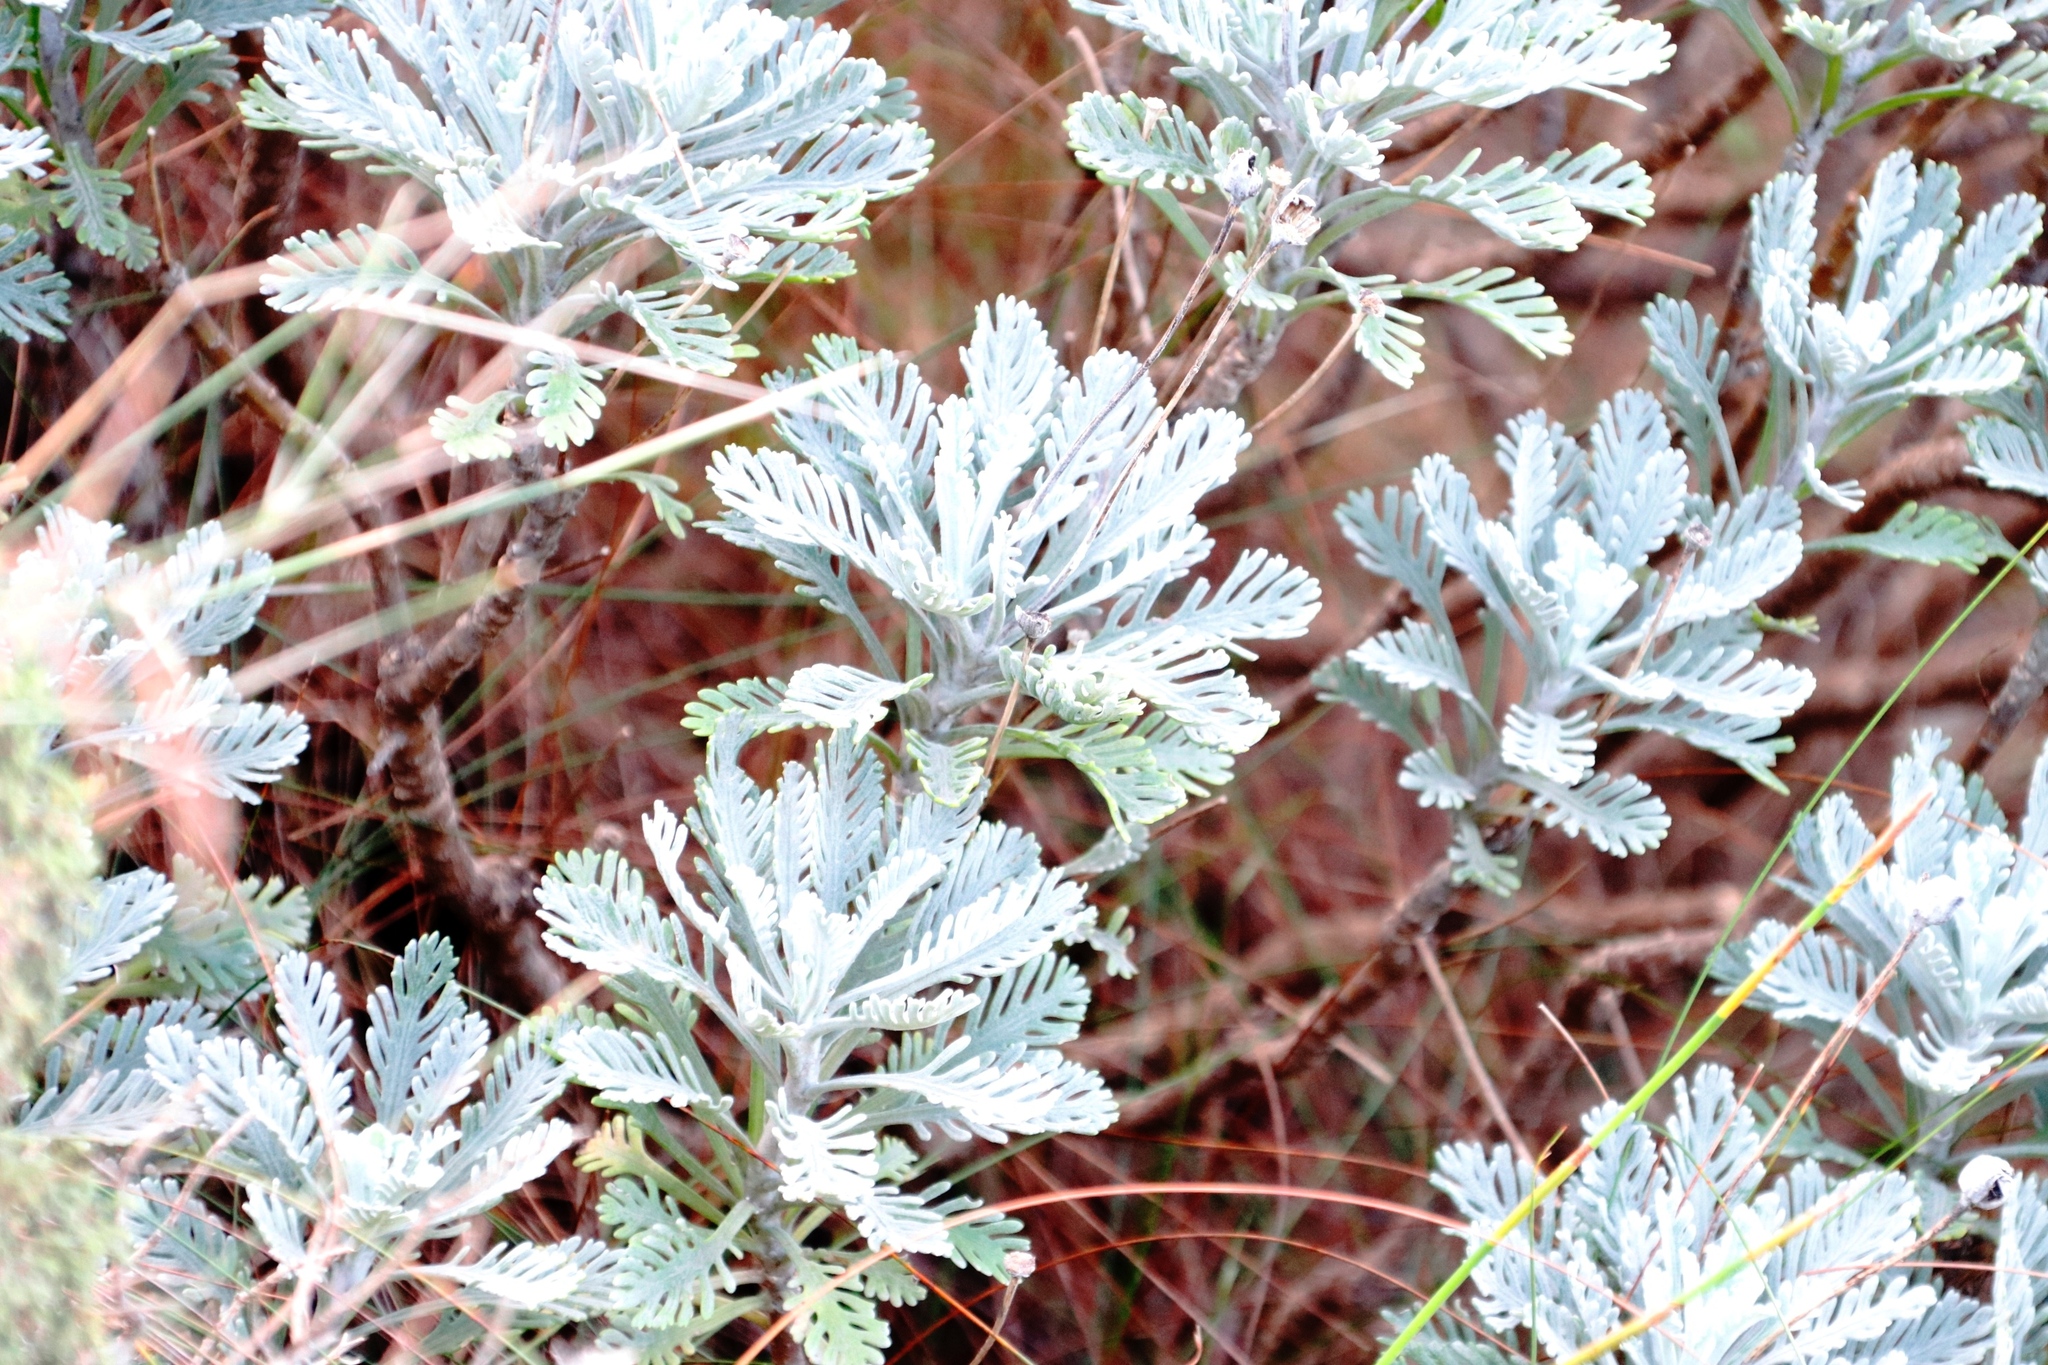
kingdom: Plantae
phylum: Tracheophyta
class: Magnoliopsida
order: Asterales
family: Asteraceae
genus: Euryops
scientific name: Euryops pectinatus
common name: Gray-leaf euryops
